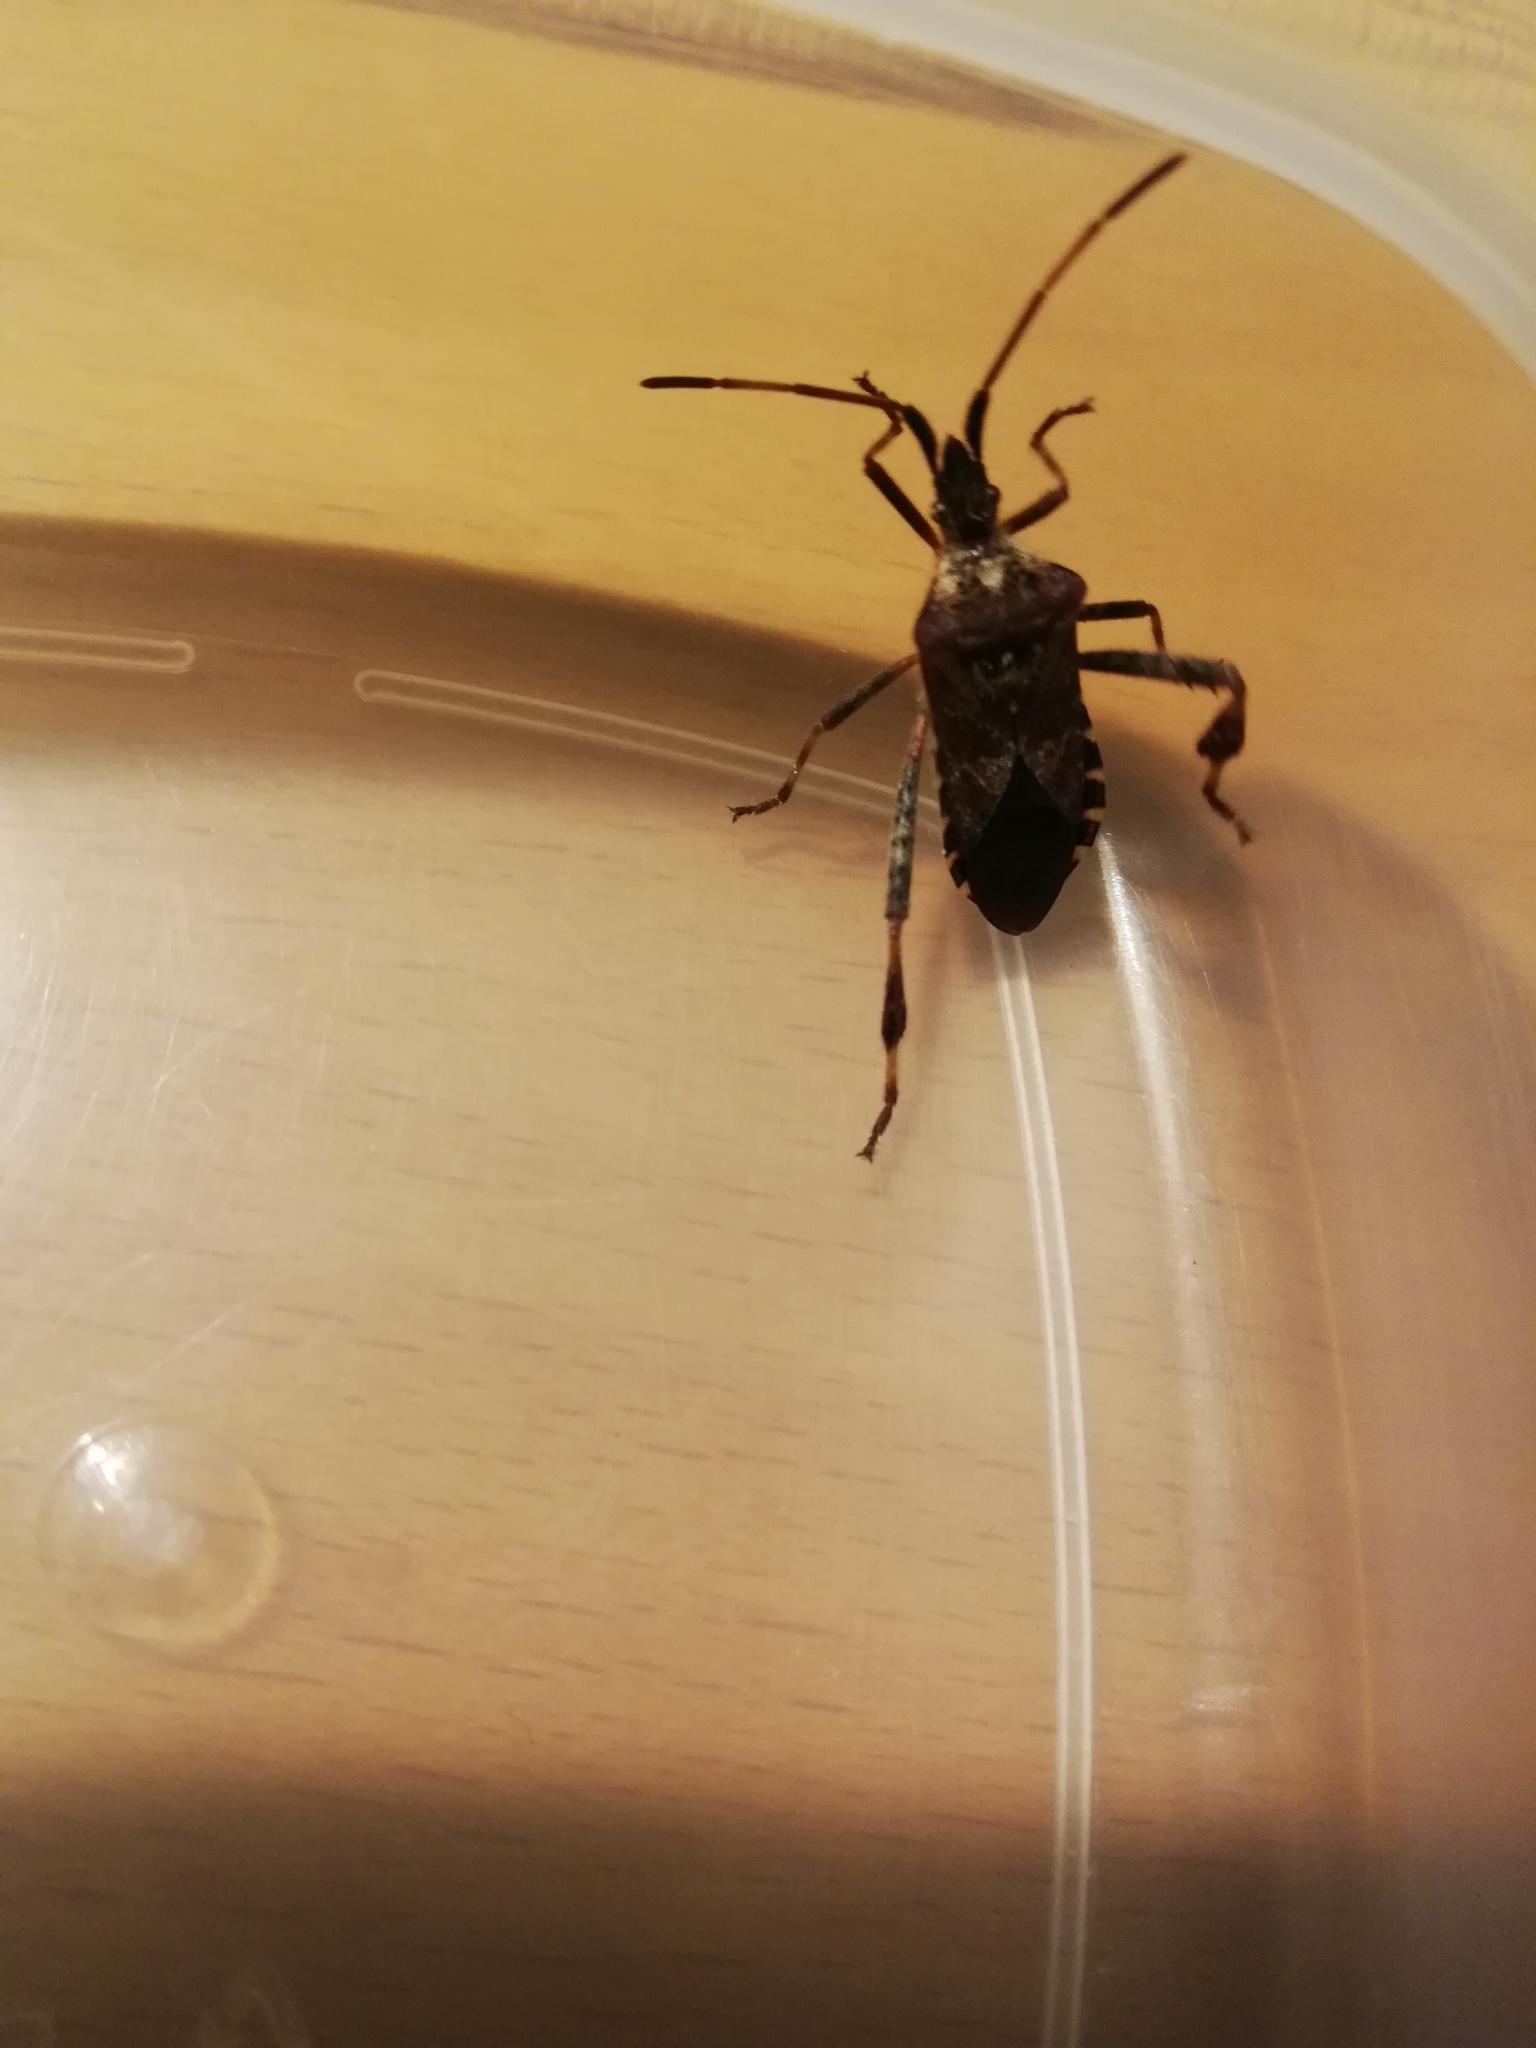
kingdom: Animalia
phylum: Arthropoda
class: Insecta
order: Hemiptera
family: Coreidae
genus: Leptoglossus
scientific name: Leptoglossus occidentalis
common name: Western conifer-seed bug
